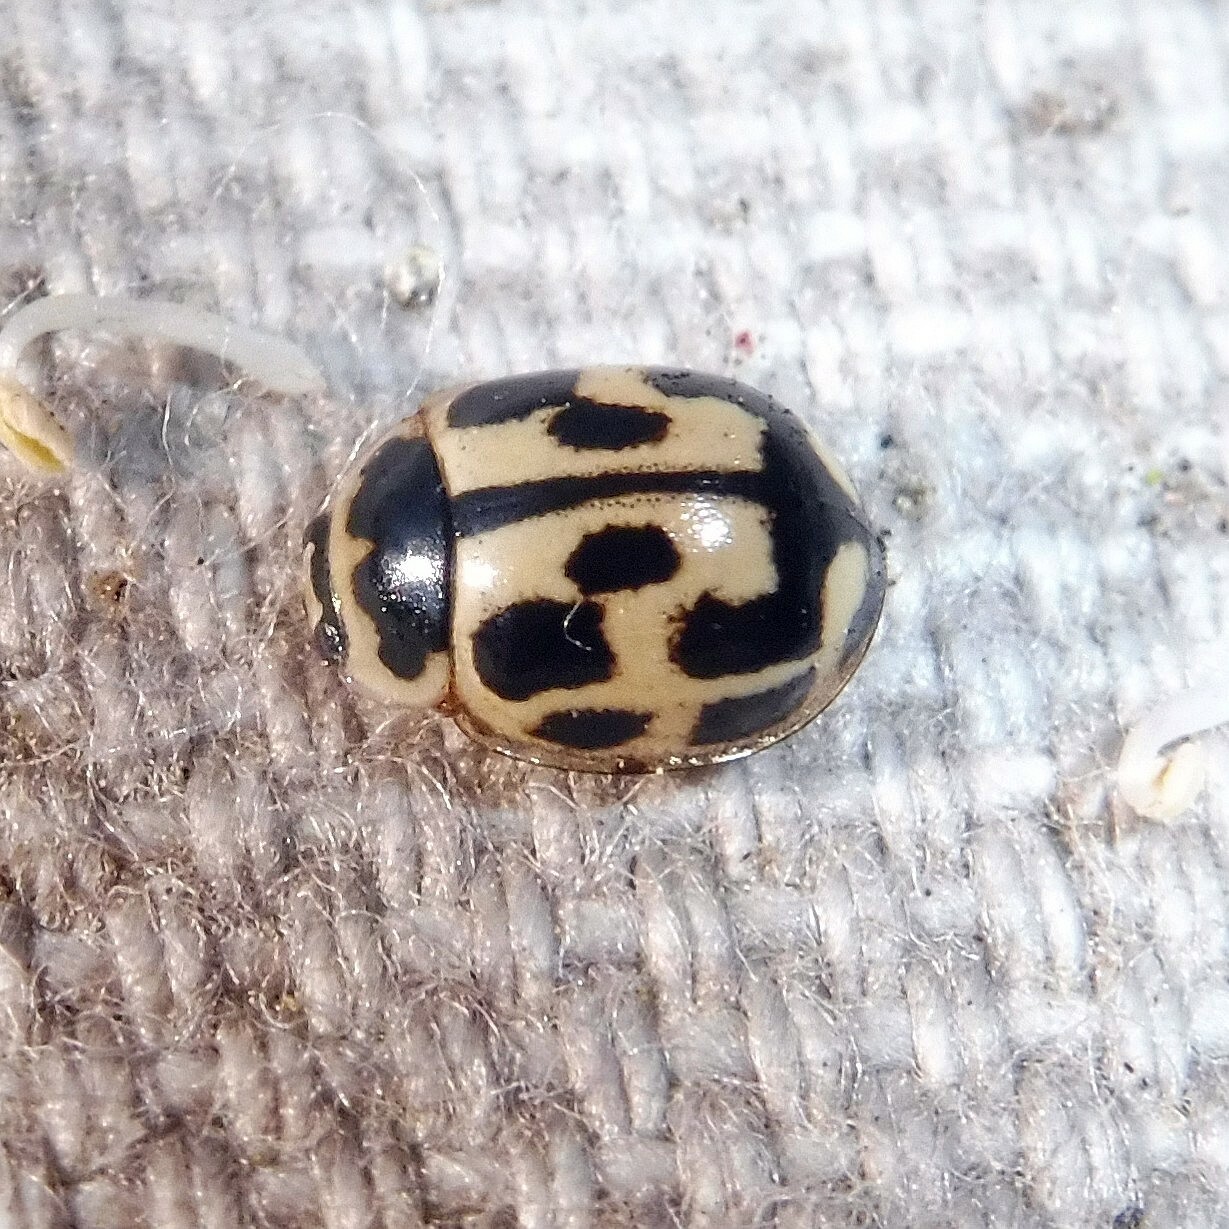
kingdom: Animalia
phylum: Arthropoda
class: Insecta
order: Coleoptera
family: Coccinellidae
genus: Propylaea
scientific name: Propylaea quatuordecimpunctata
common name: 14-spotted ladybird beetle
